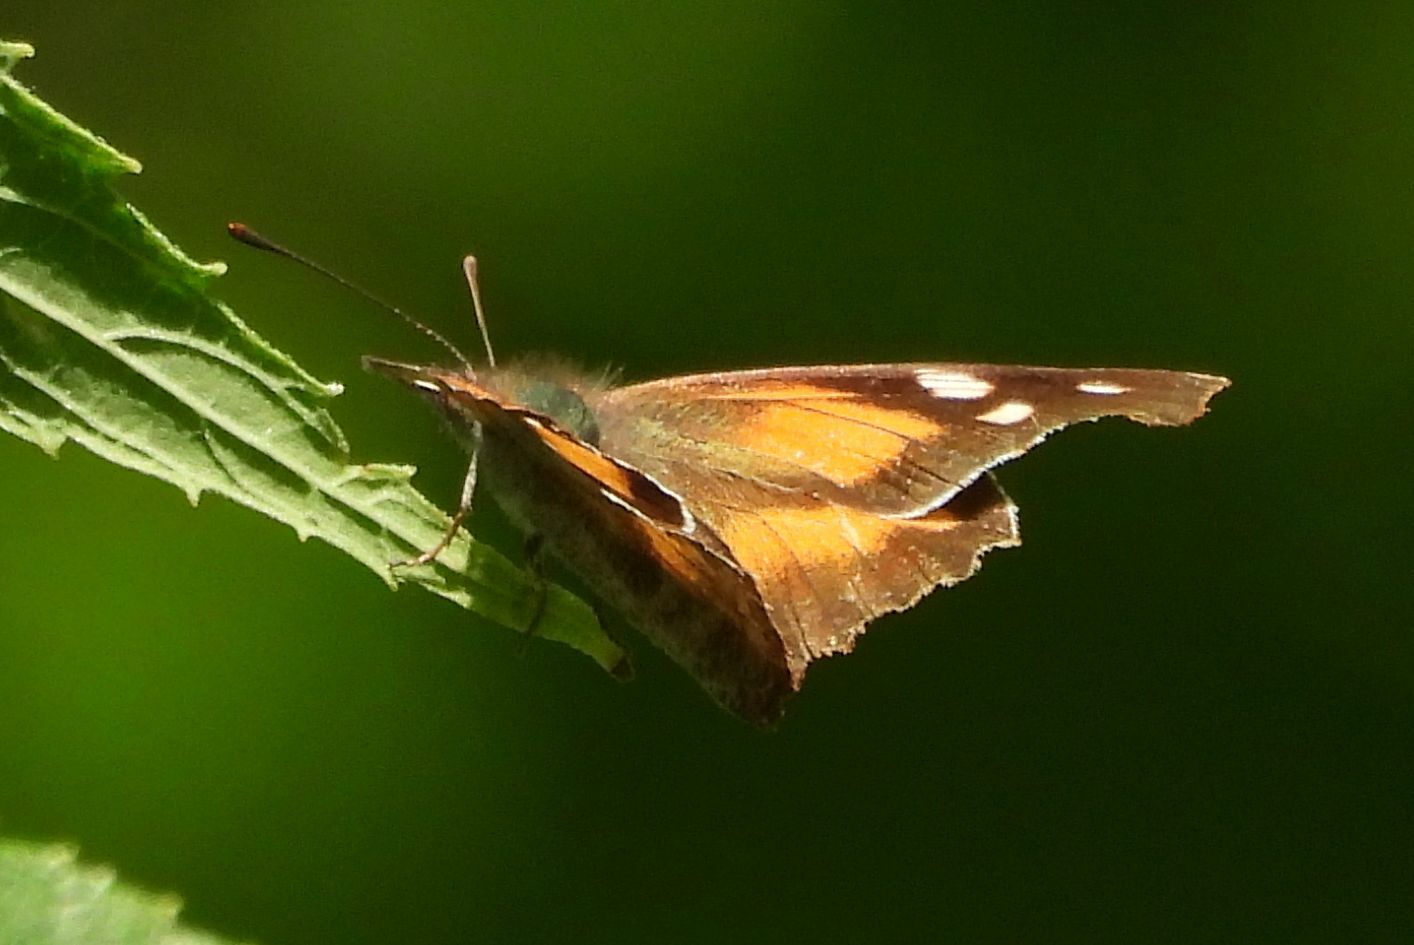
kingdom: Animalia
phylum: Arthropoda
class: Insecta
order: Lepidoptera
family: Nymphalidae
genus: Libytheana
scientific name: Libytheana carinenta
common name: American snout
